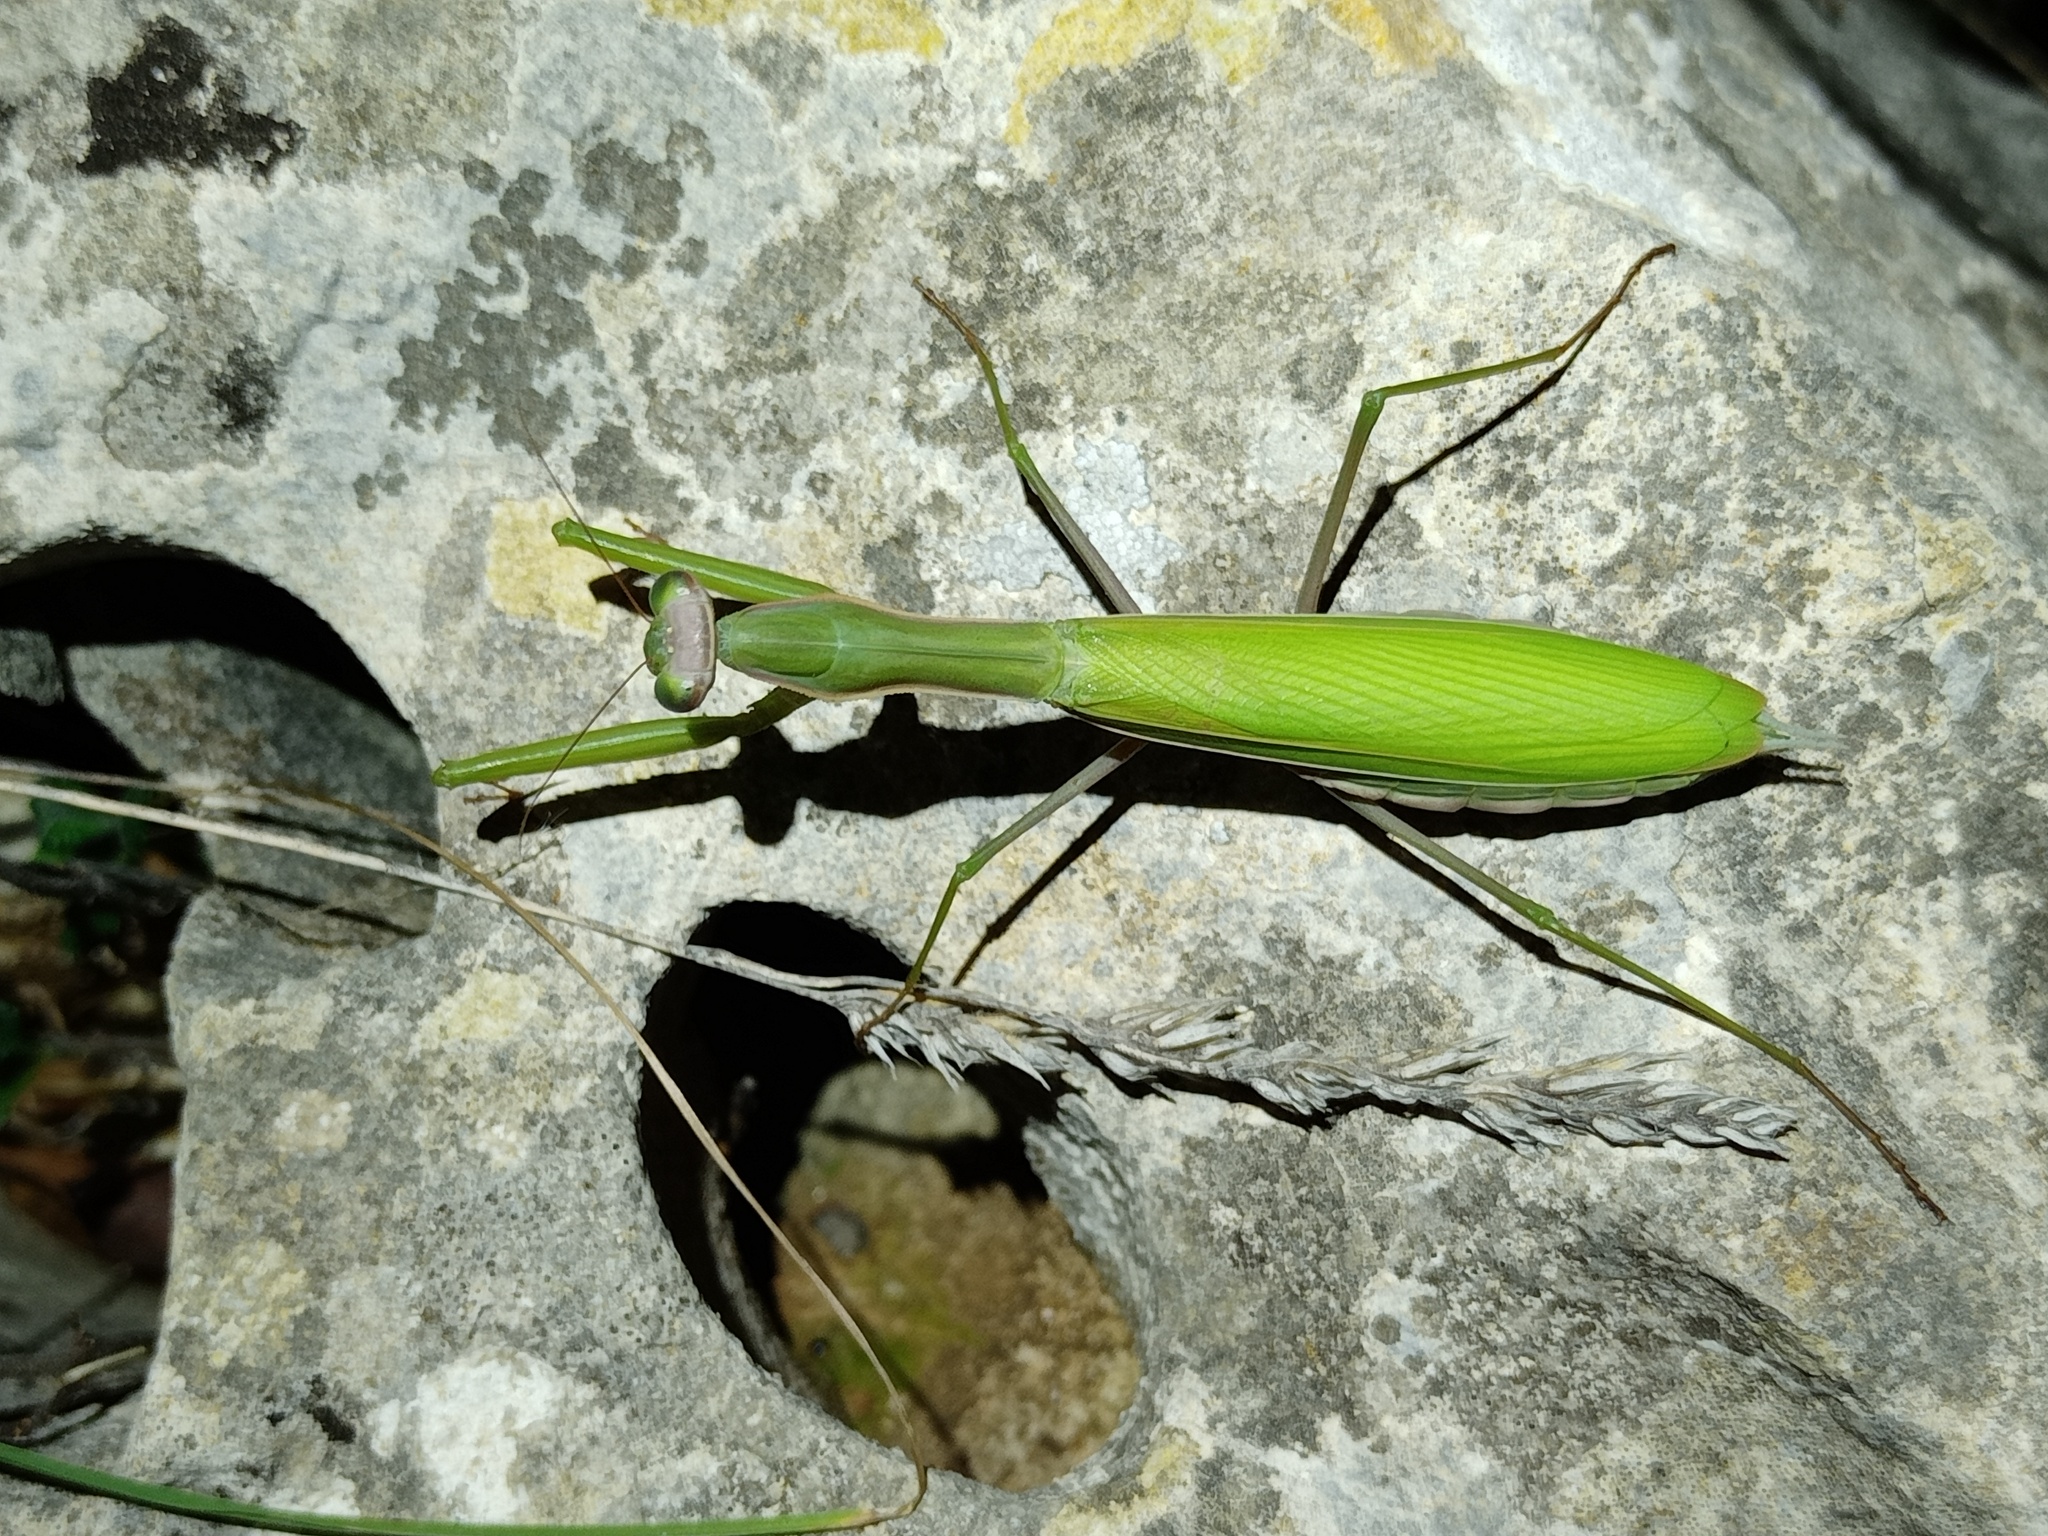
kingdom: Animalia
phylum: Arthropoda
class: Insecta
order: Mantodea
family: Mantidae
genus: Mantis
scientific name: Mantis religiosa
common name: Praying mantis
